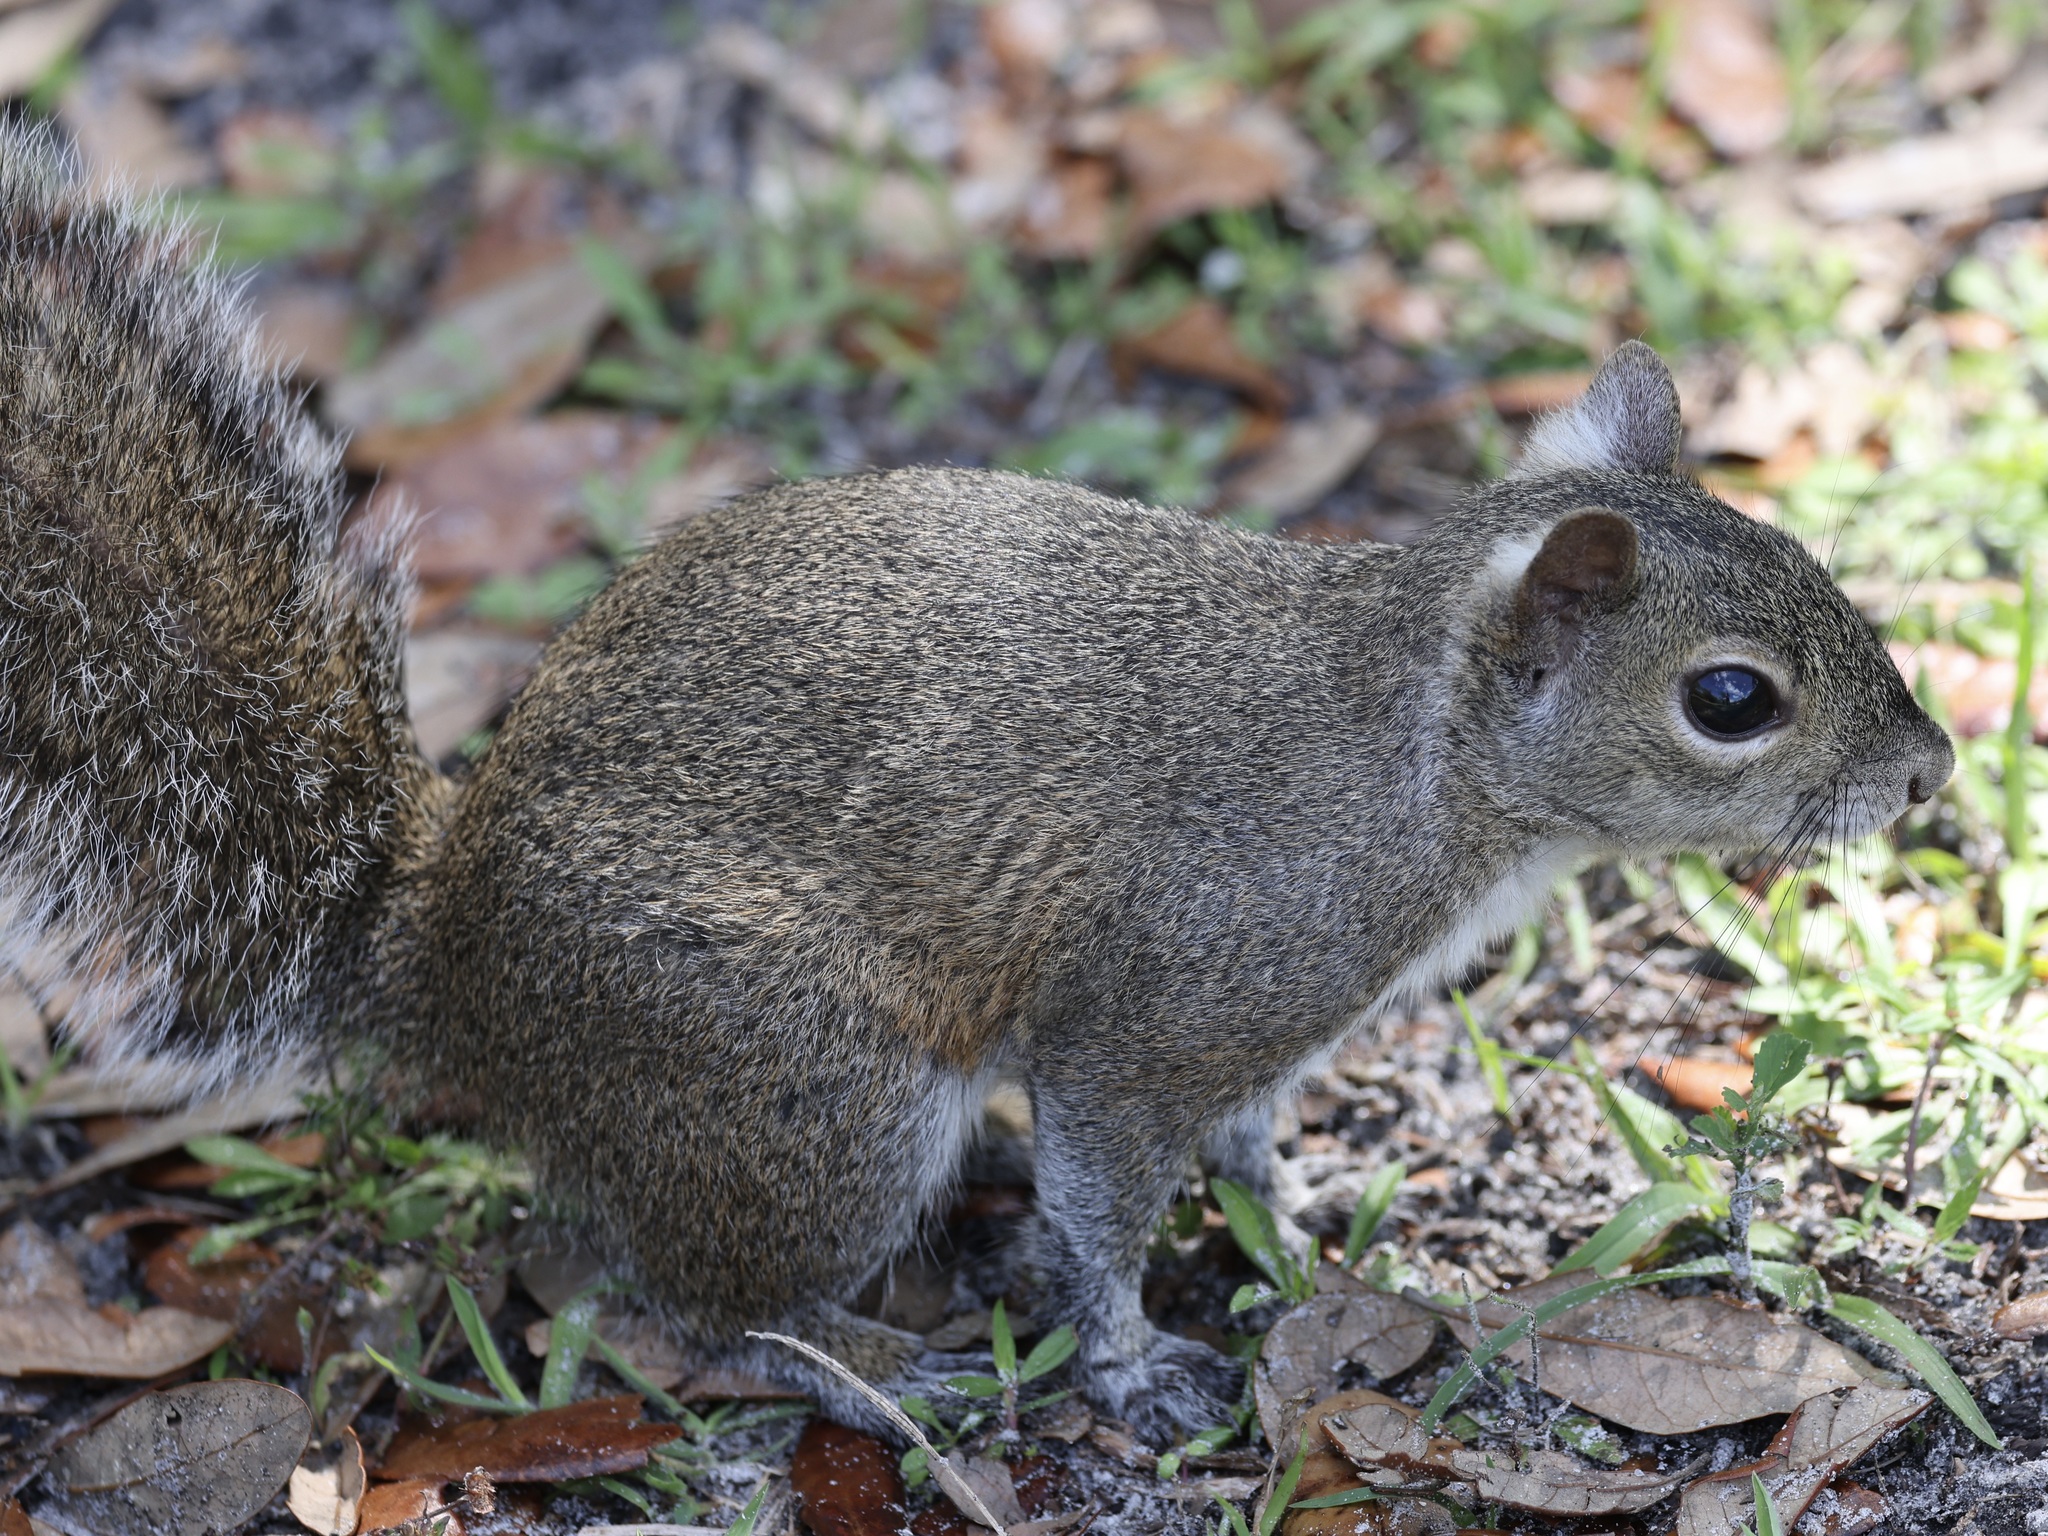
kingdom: Animalia
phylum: Chordata
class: Mammalia
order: Rodentia
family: Sciuridae
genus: Sciurus
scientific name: Sciurus carolinensis
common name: Eastern gray squirrel
